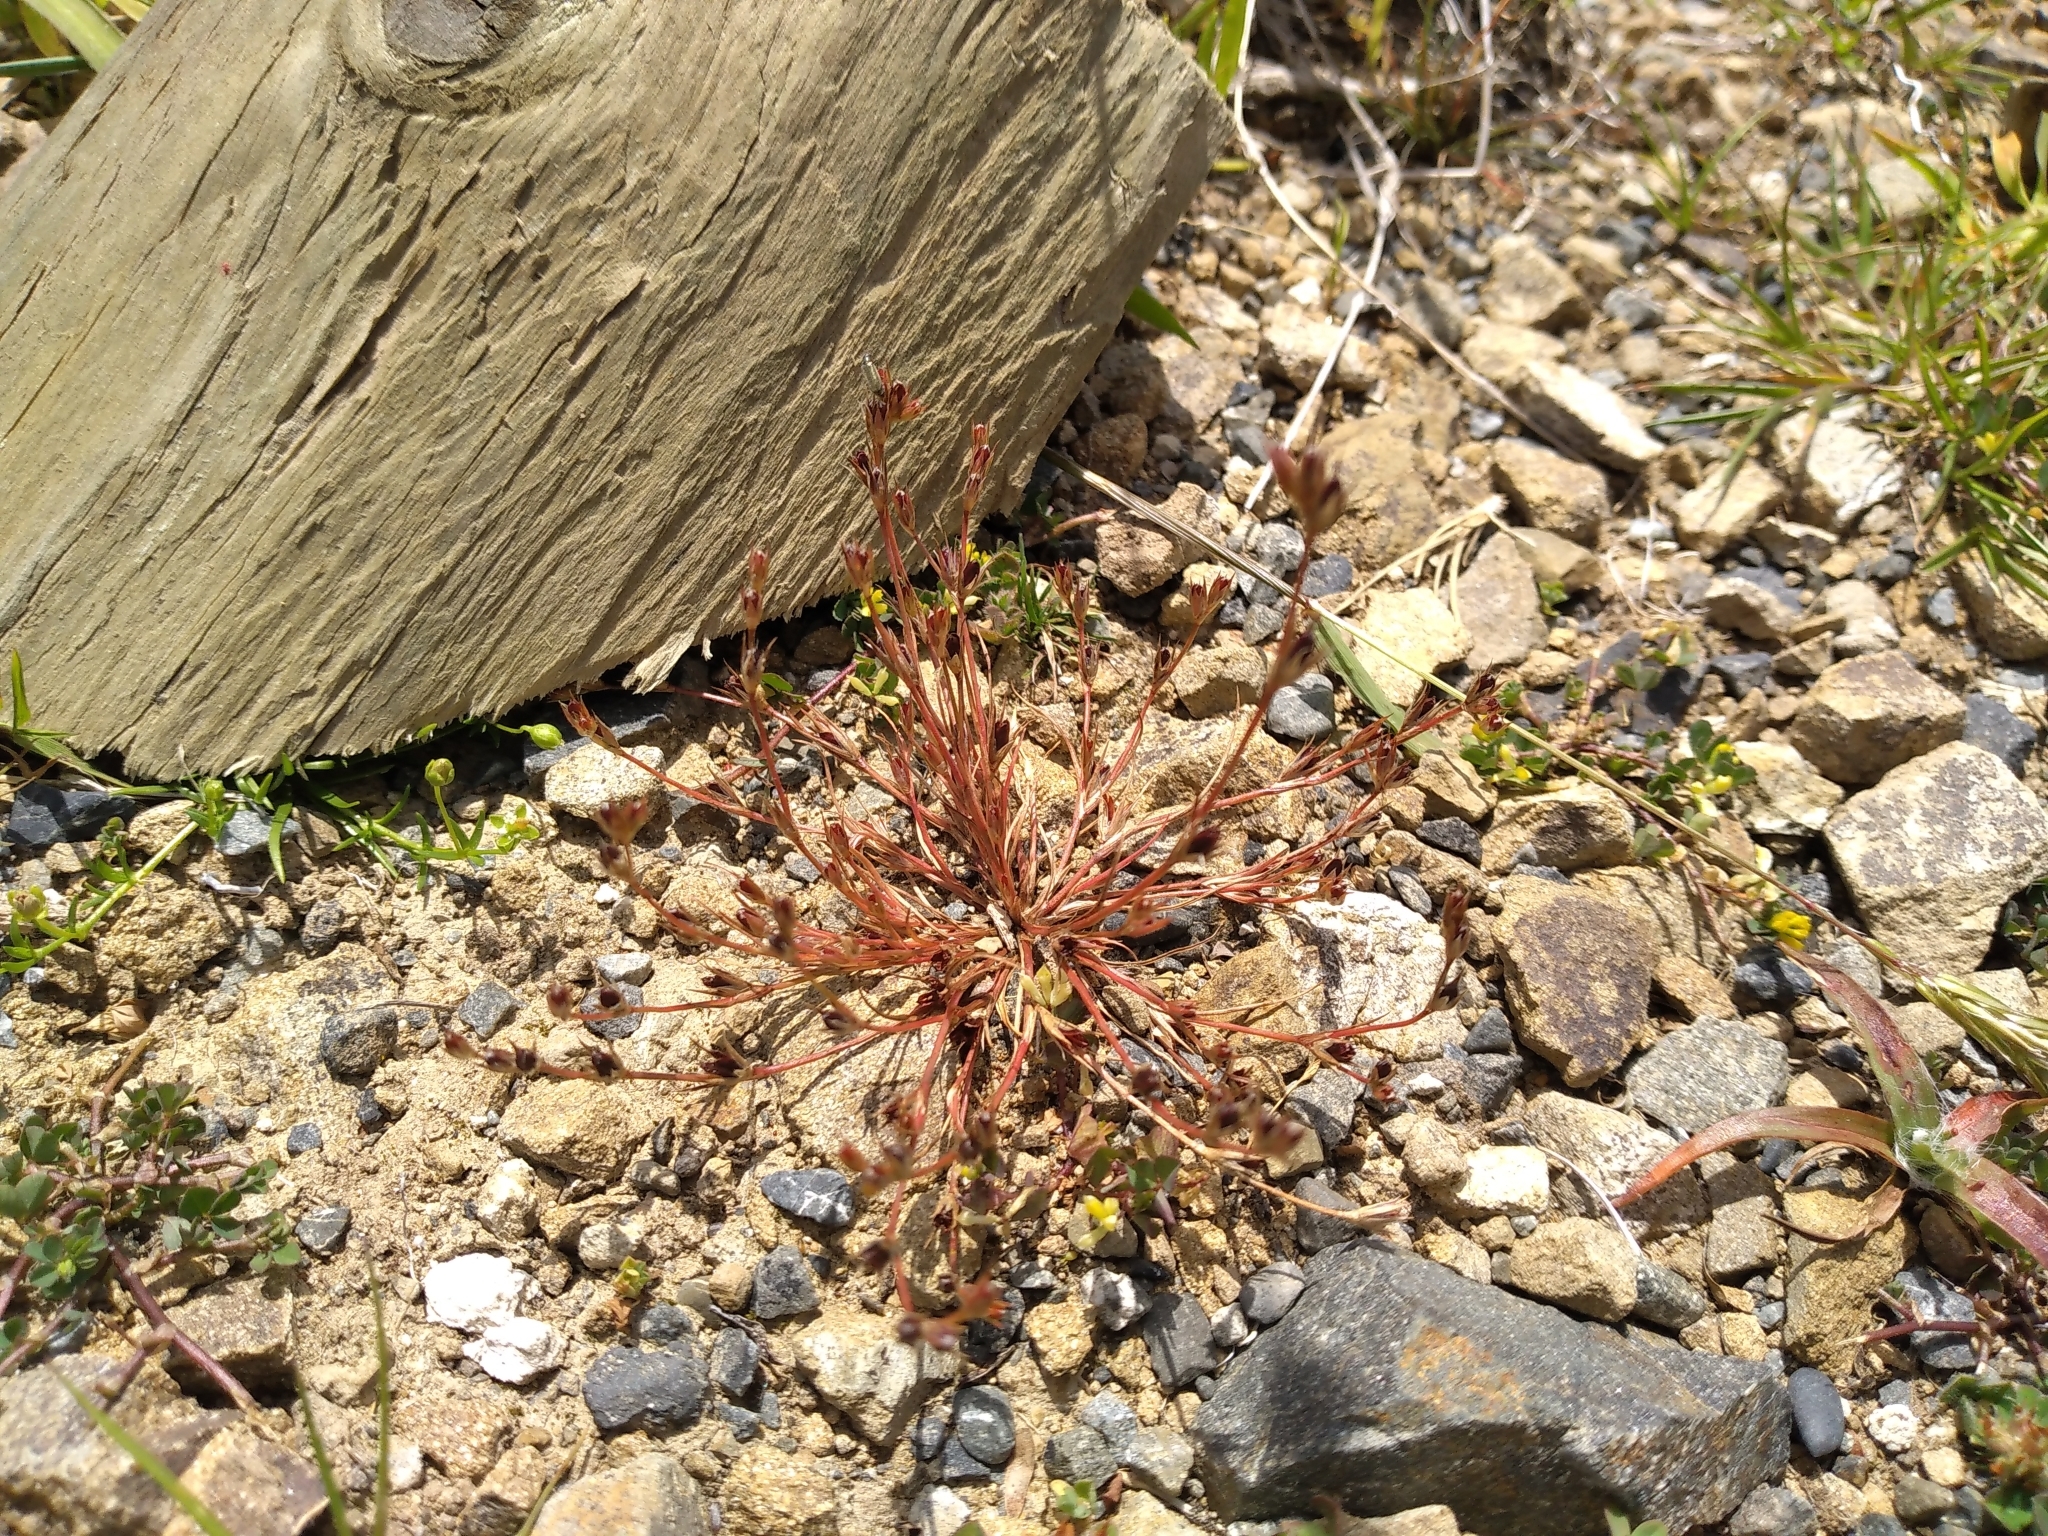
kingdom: Plantae
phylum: Tracheophyta
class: Liliopsida
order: Poales
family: Juncaceae
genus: Juncus
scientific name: Juncus bufonius
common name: Toad rush
